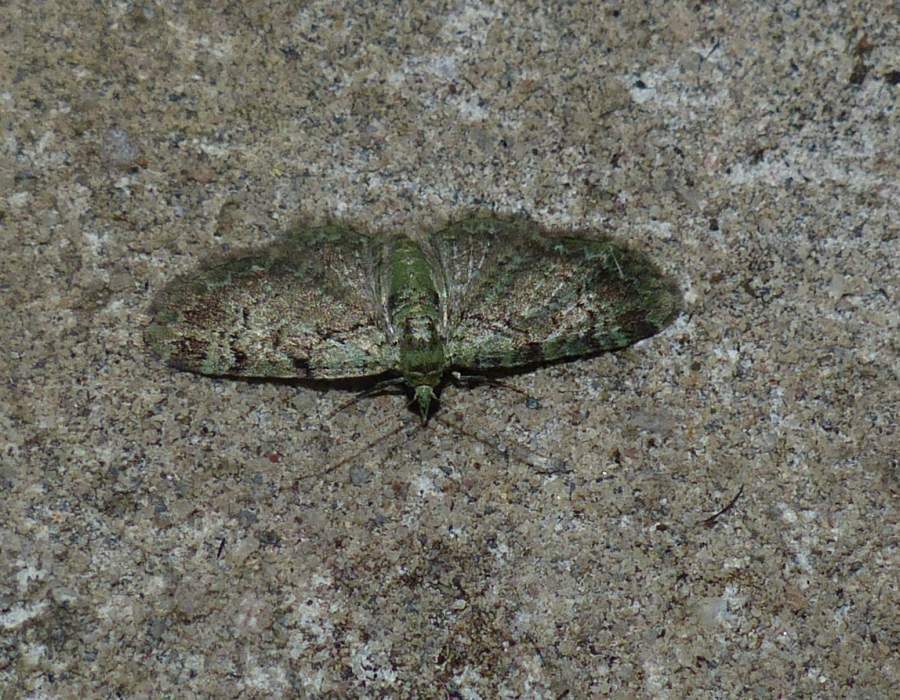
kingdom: Animalia
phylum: Arthropoda
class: Insecta
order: Lepidoptera
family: Geometridae
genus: Pasiphila
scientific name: Pasiphila rectangulata
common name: Green pug
